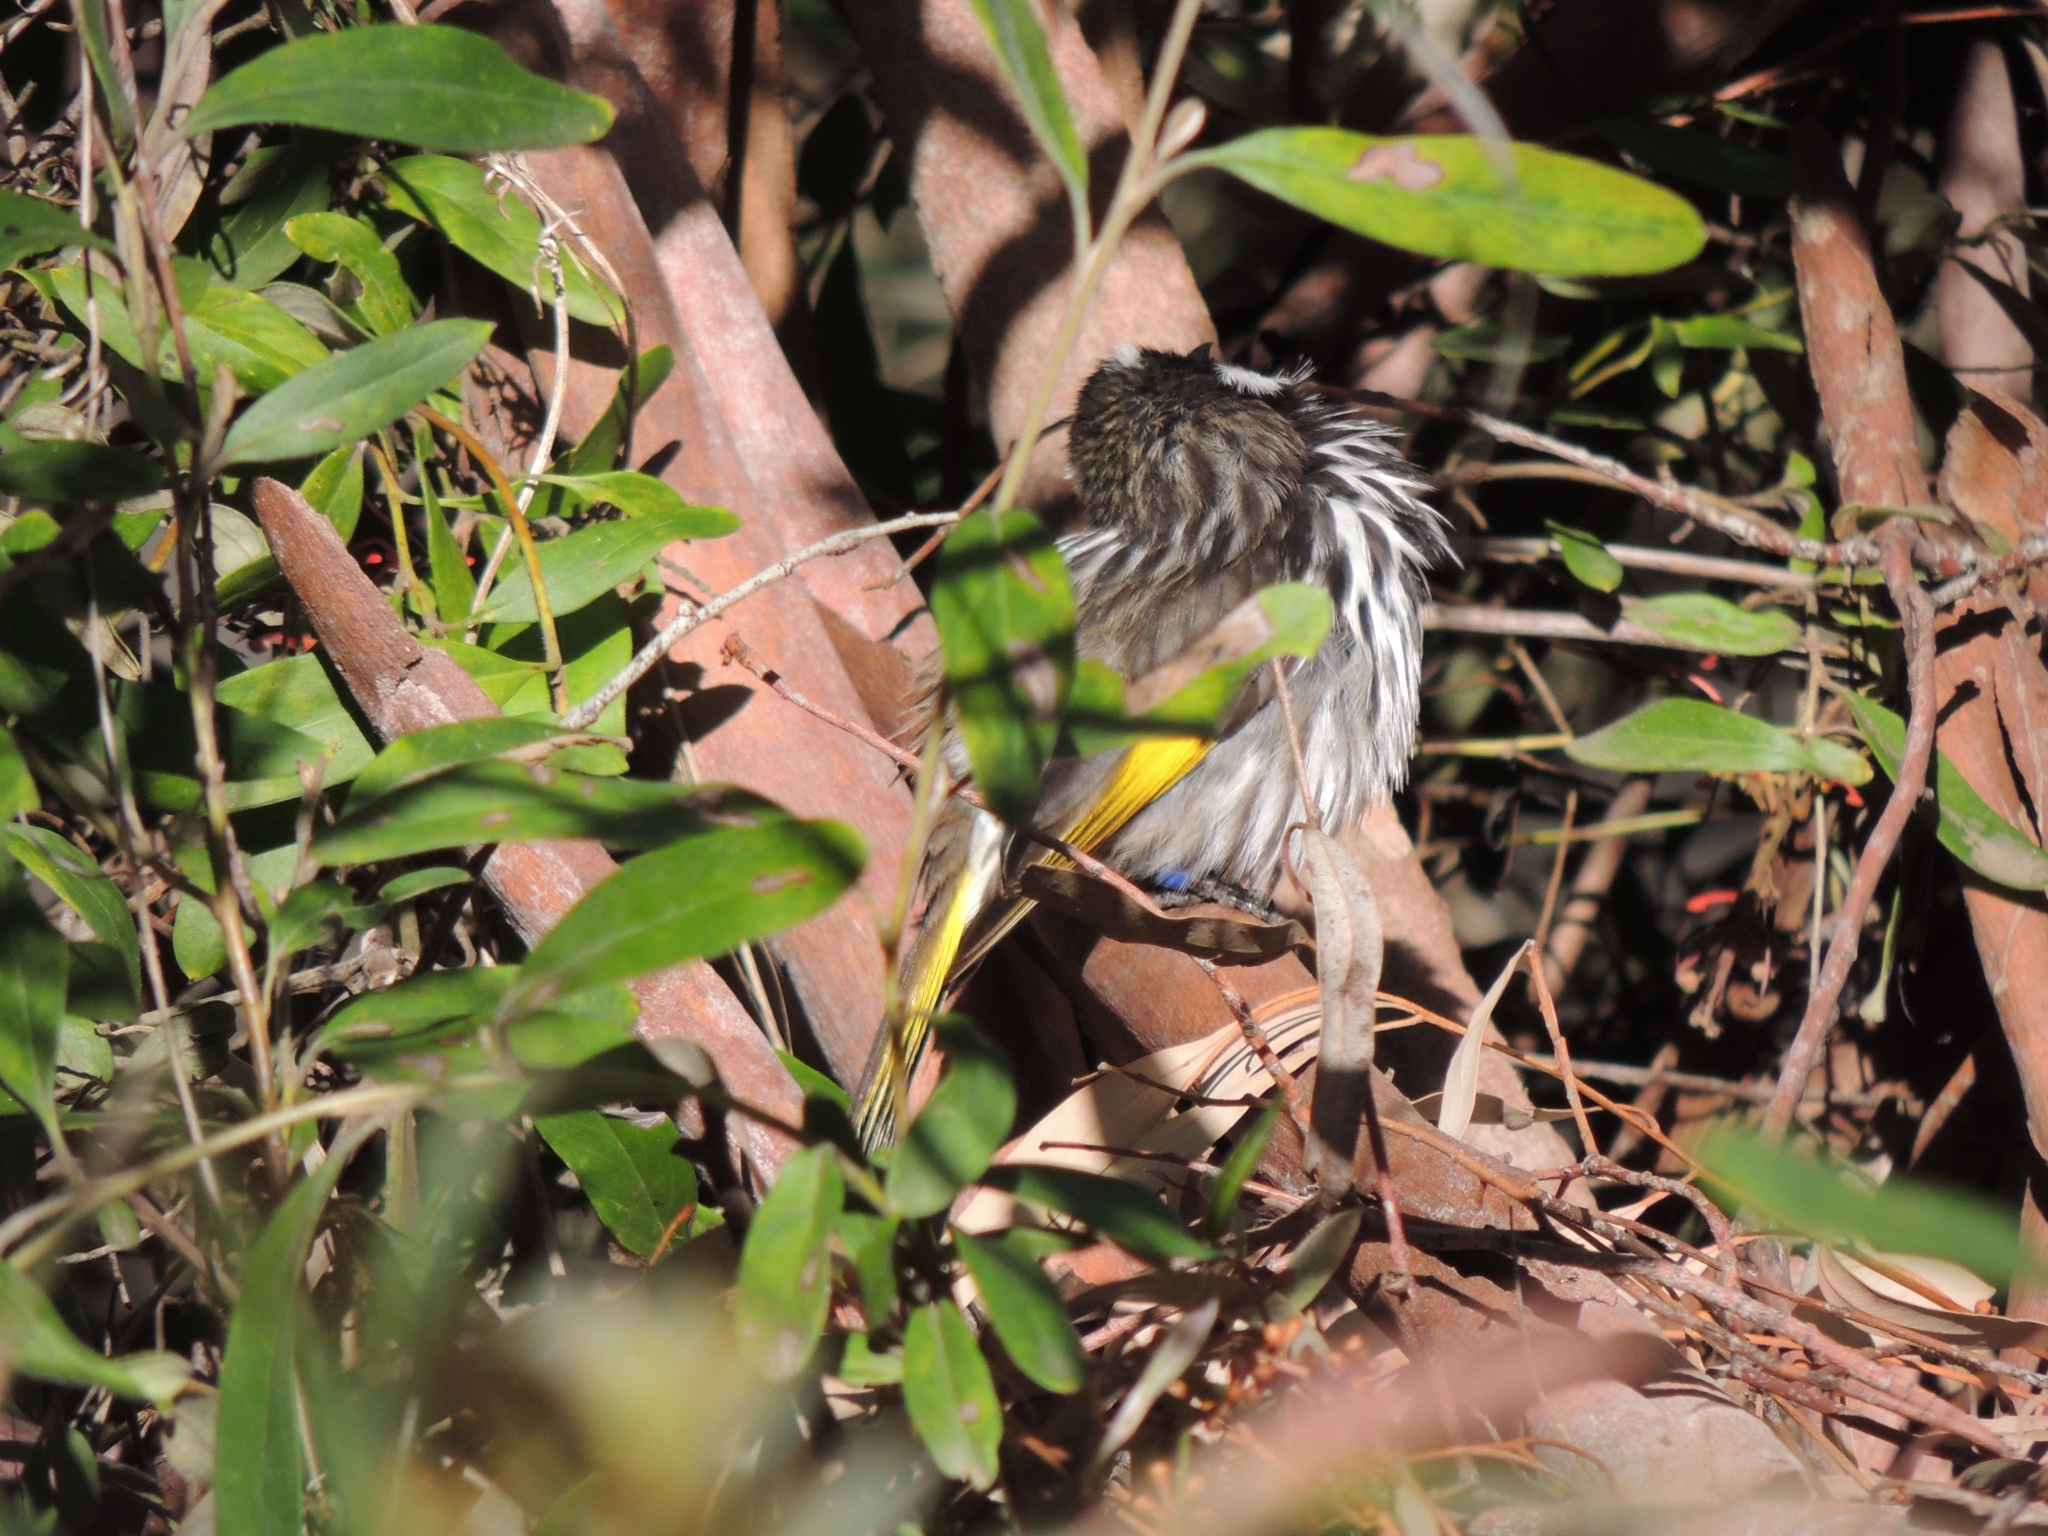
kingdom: Animalia
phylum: Chordata
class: Aves
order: Passeriformes
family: Meliphagidae
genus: Phylidonyris
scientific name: Phylidonyris novaehollandiae
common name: New holland honeyeater
